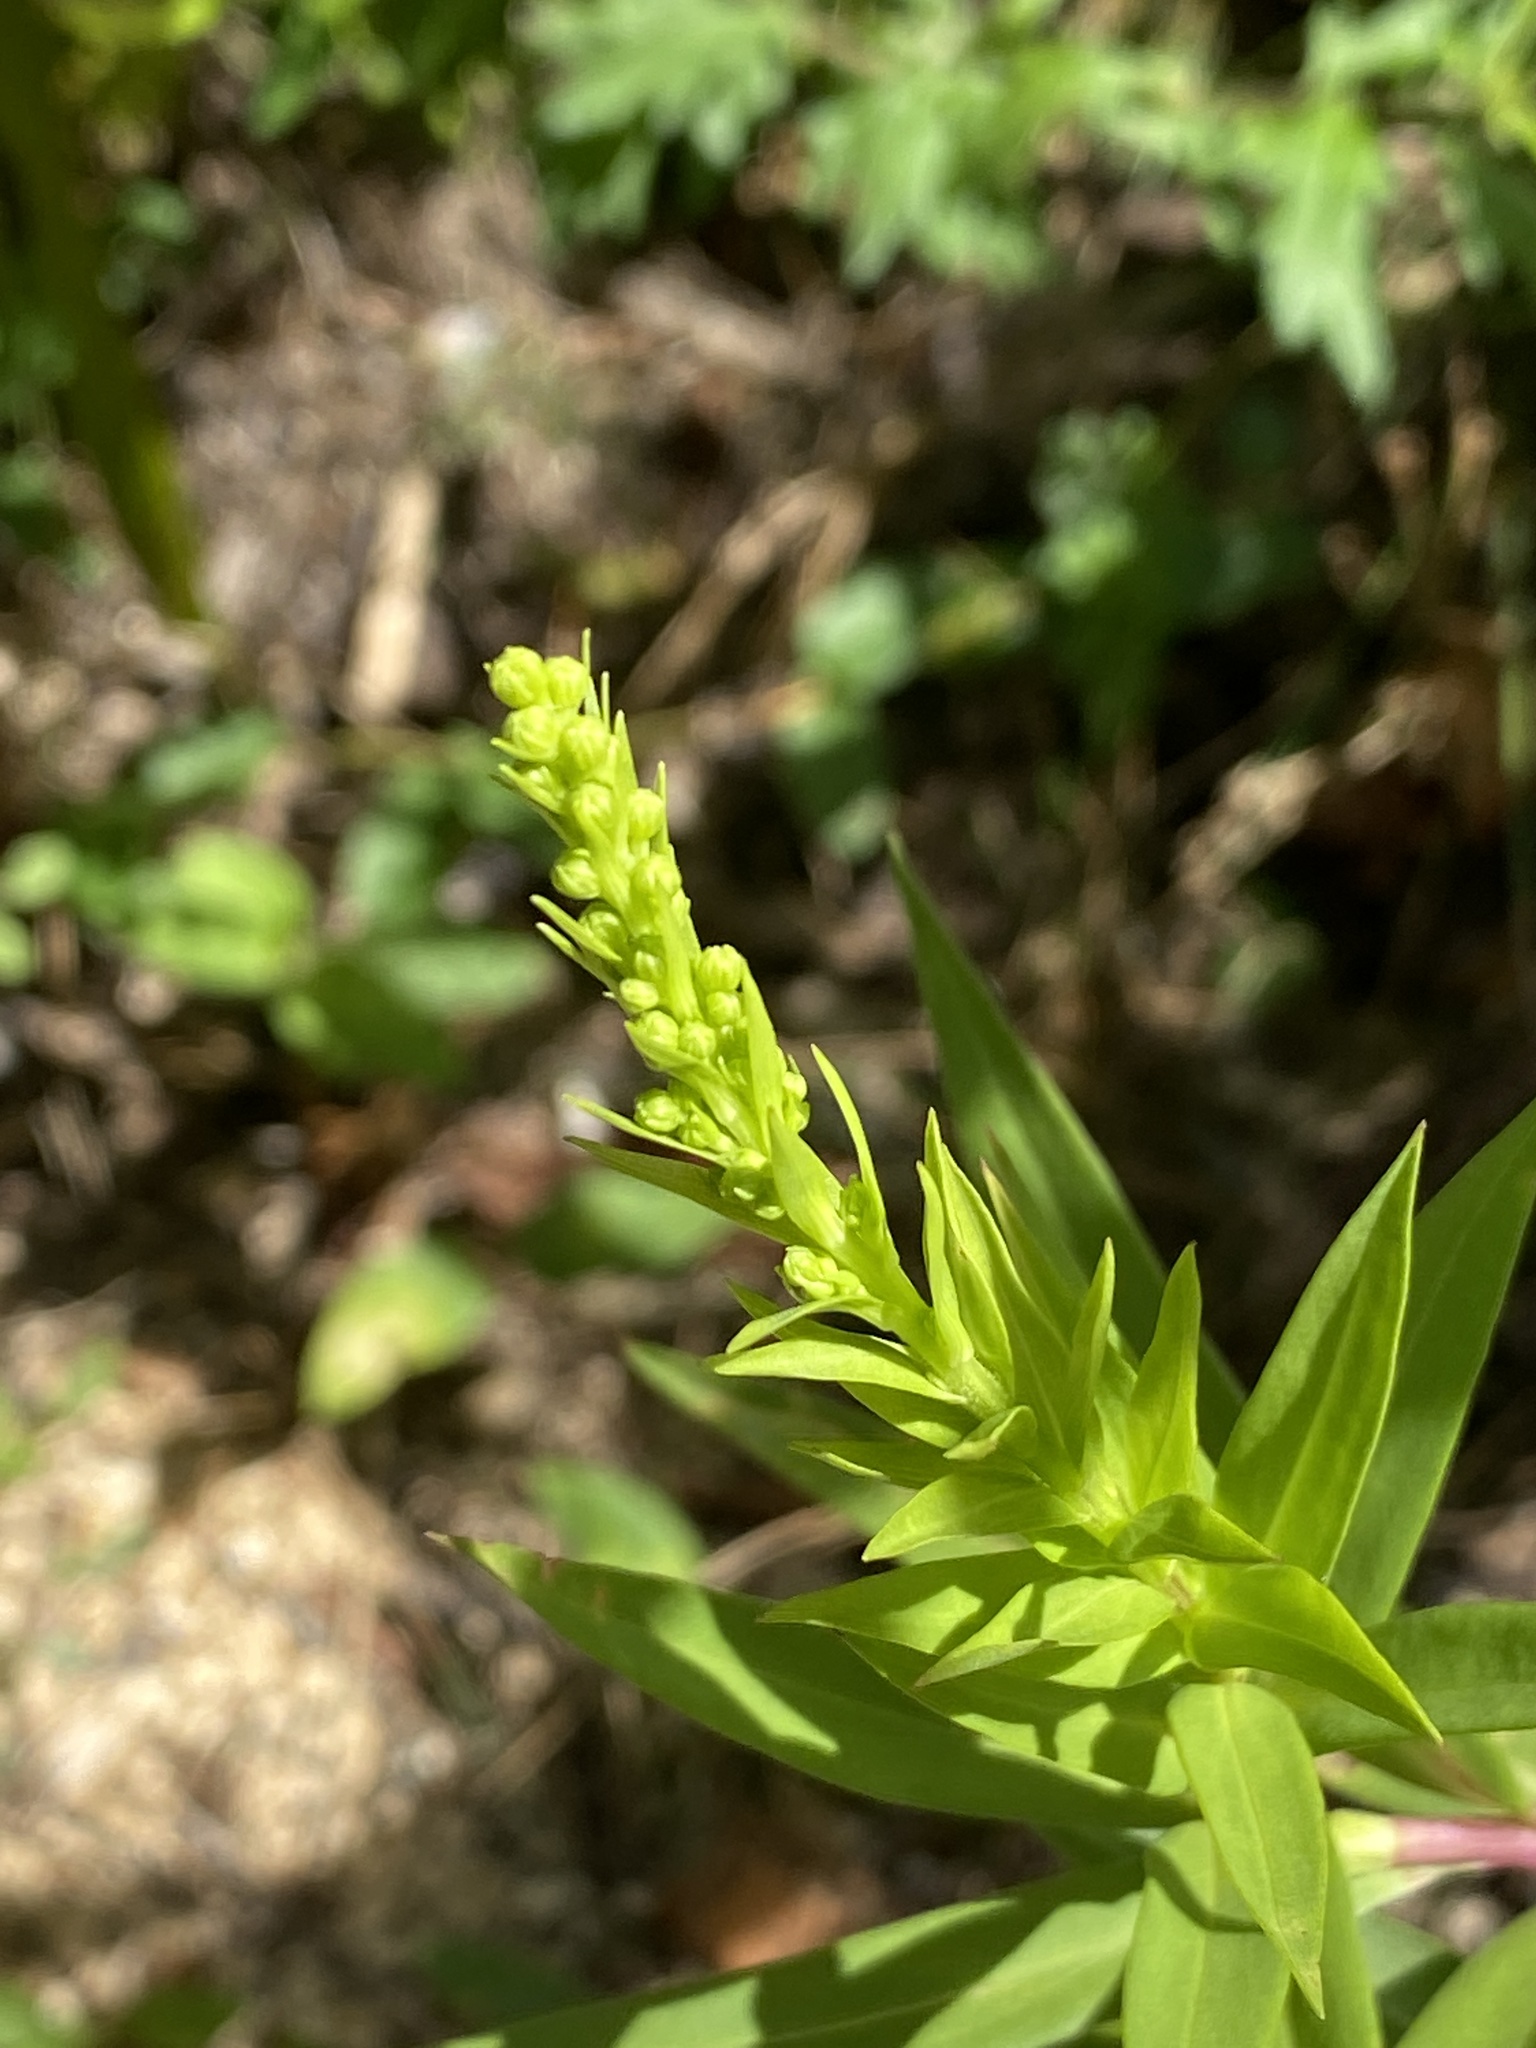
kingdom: Plantae
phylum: Tracheophyta
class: Magnoliopsida
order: Asterales
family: Asteraceae
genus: Solidago
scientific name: Solidago sempervirens
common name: Salt-marsh goldenrod
